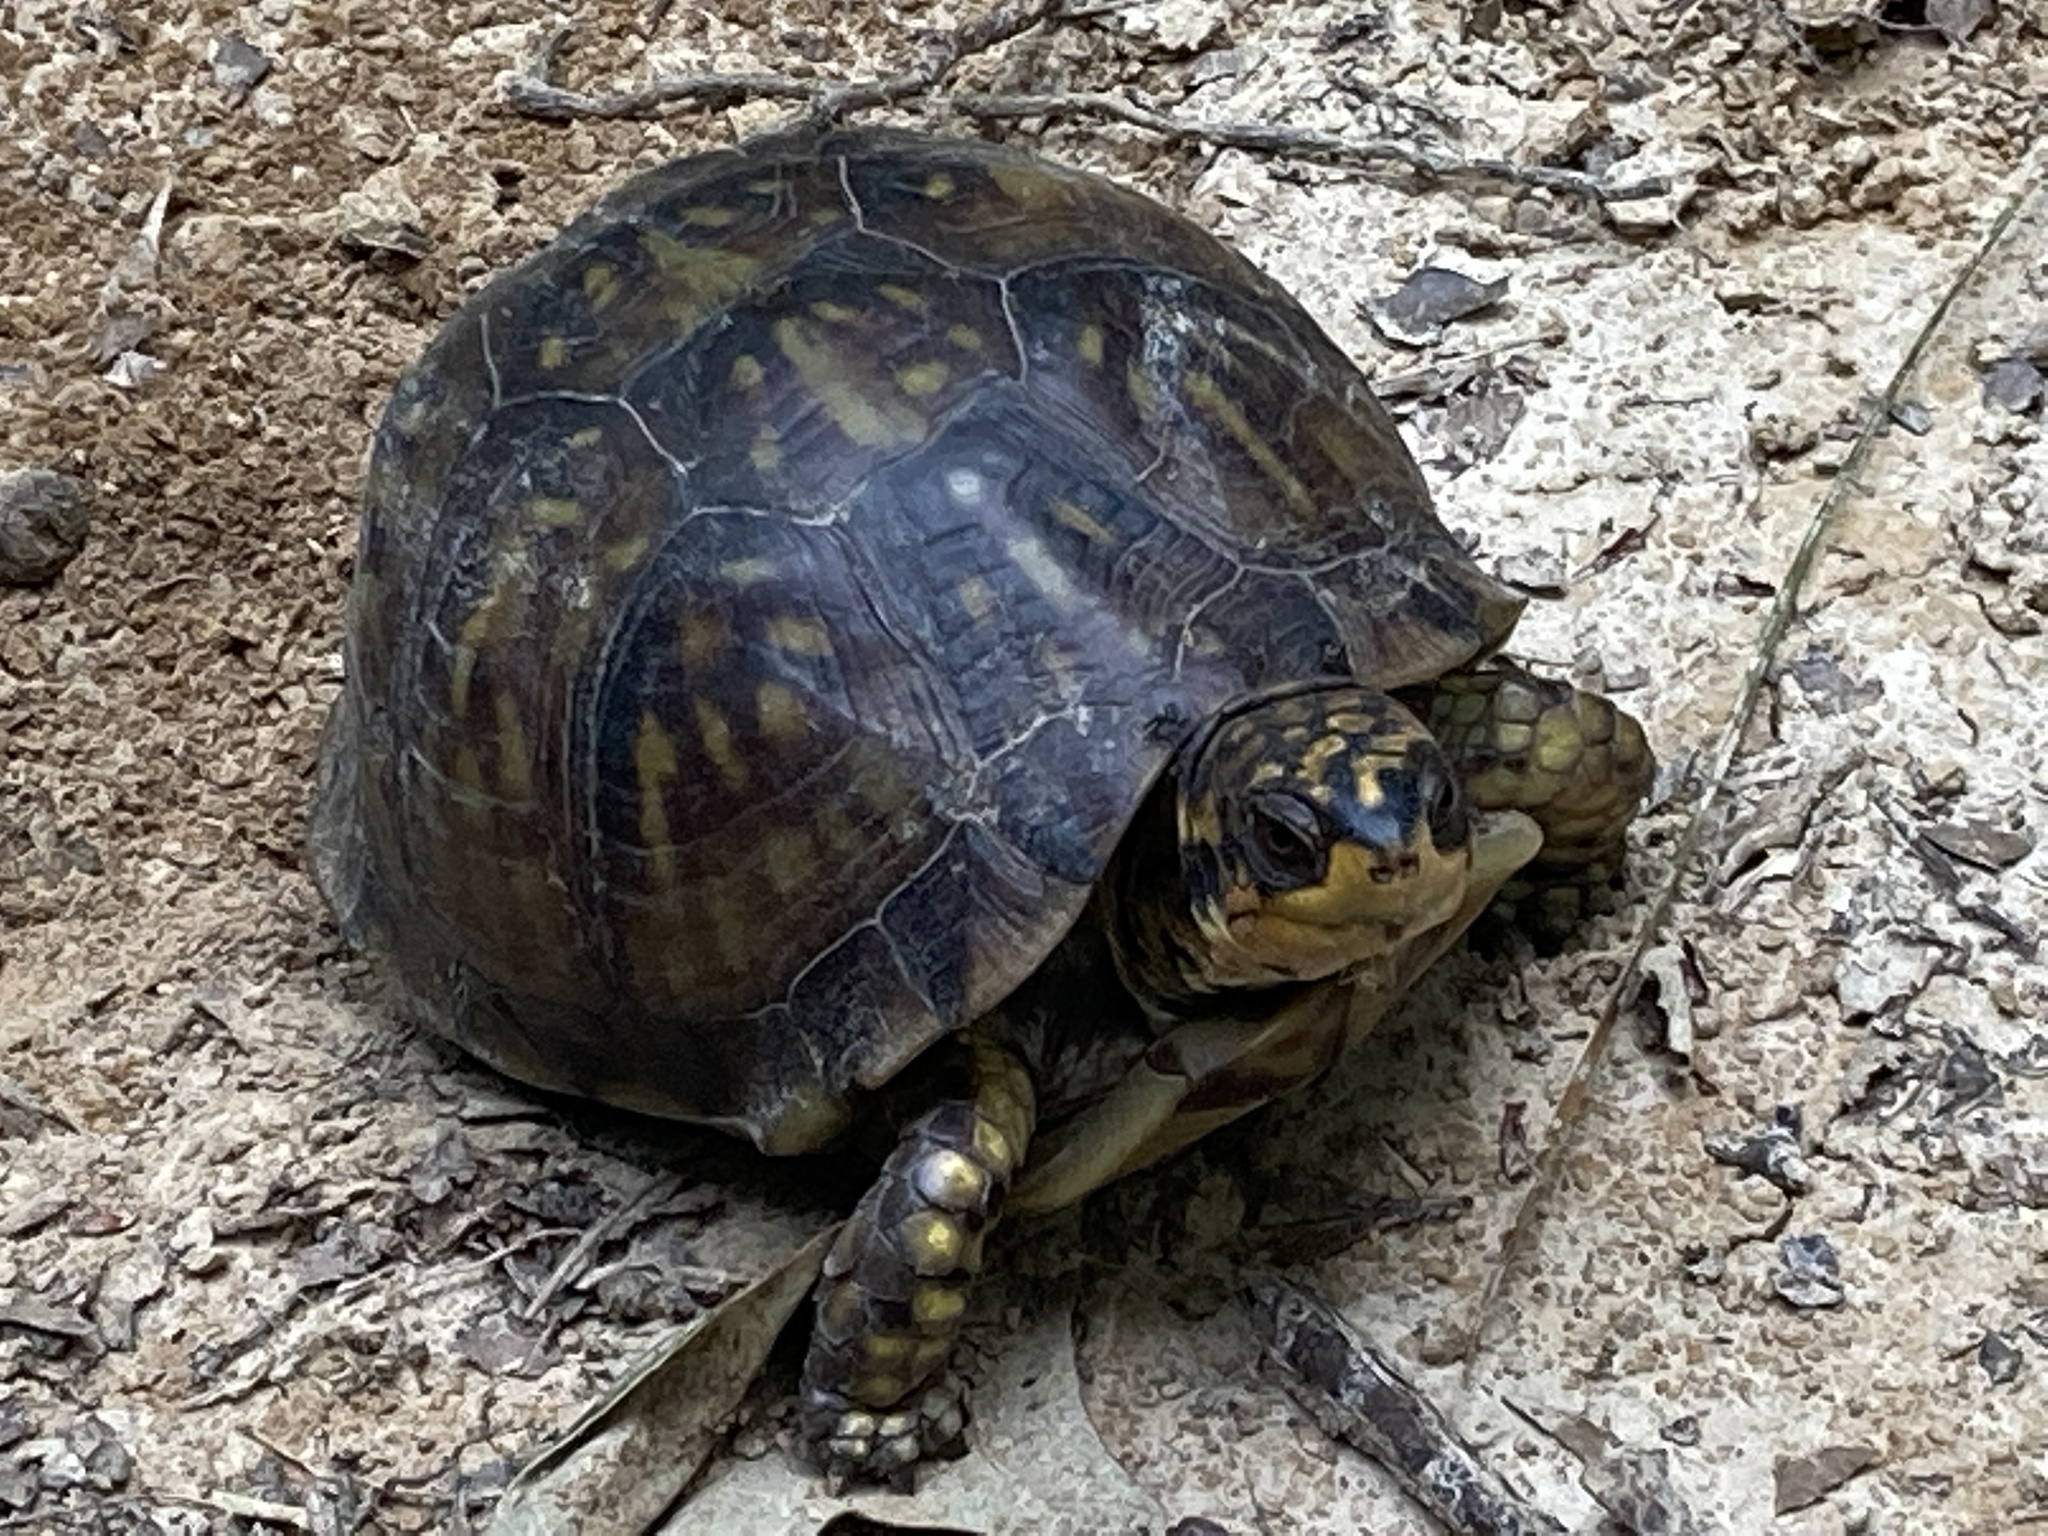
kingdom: Animalia
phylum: Chordata
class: Testudines
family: Emydidae
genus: Terrapene
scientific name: Terrapene carolina
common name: Common box turtle
